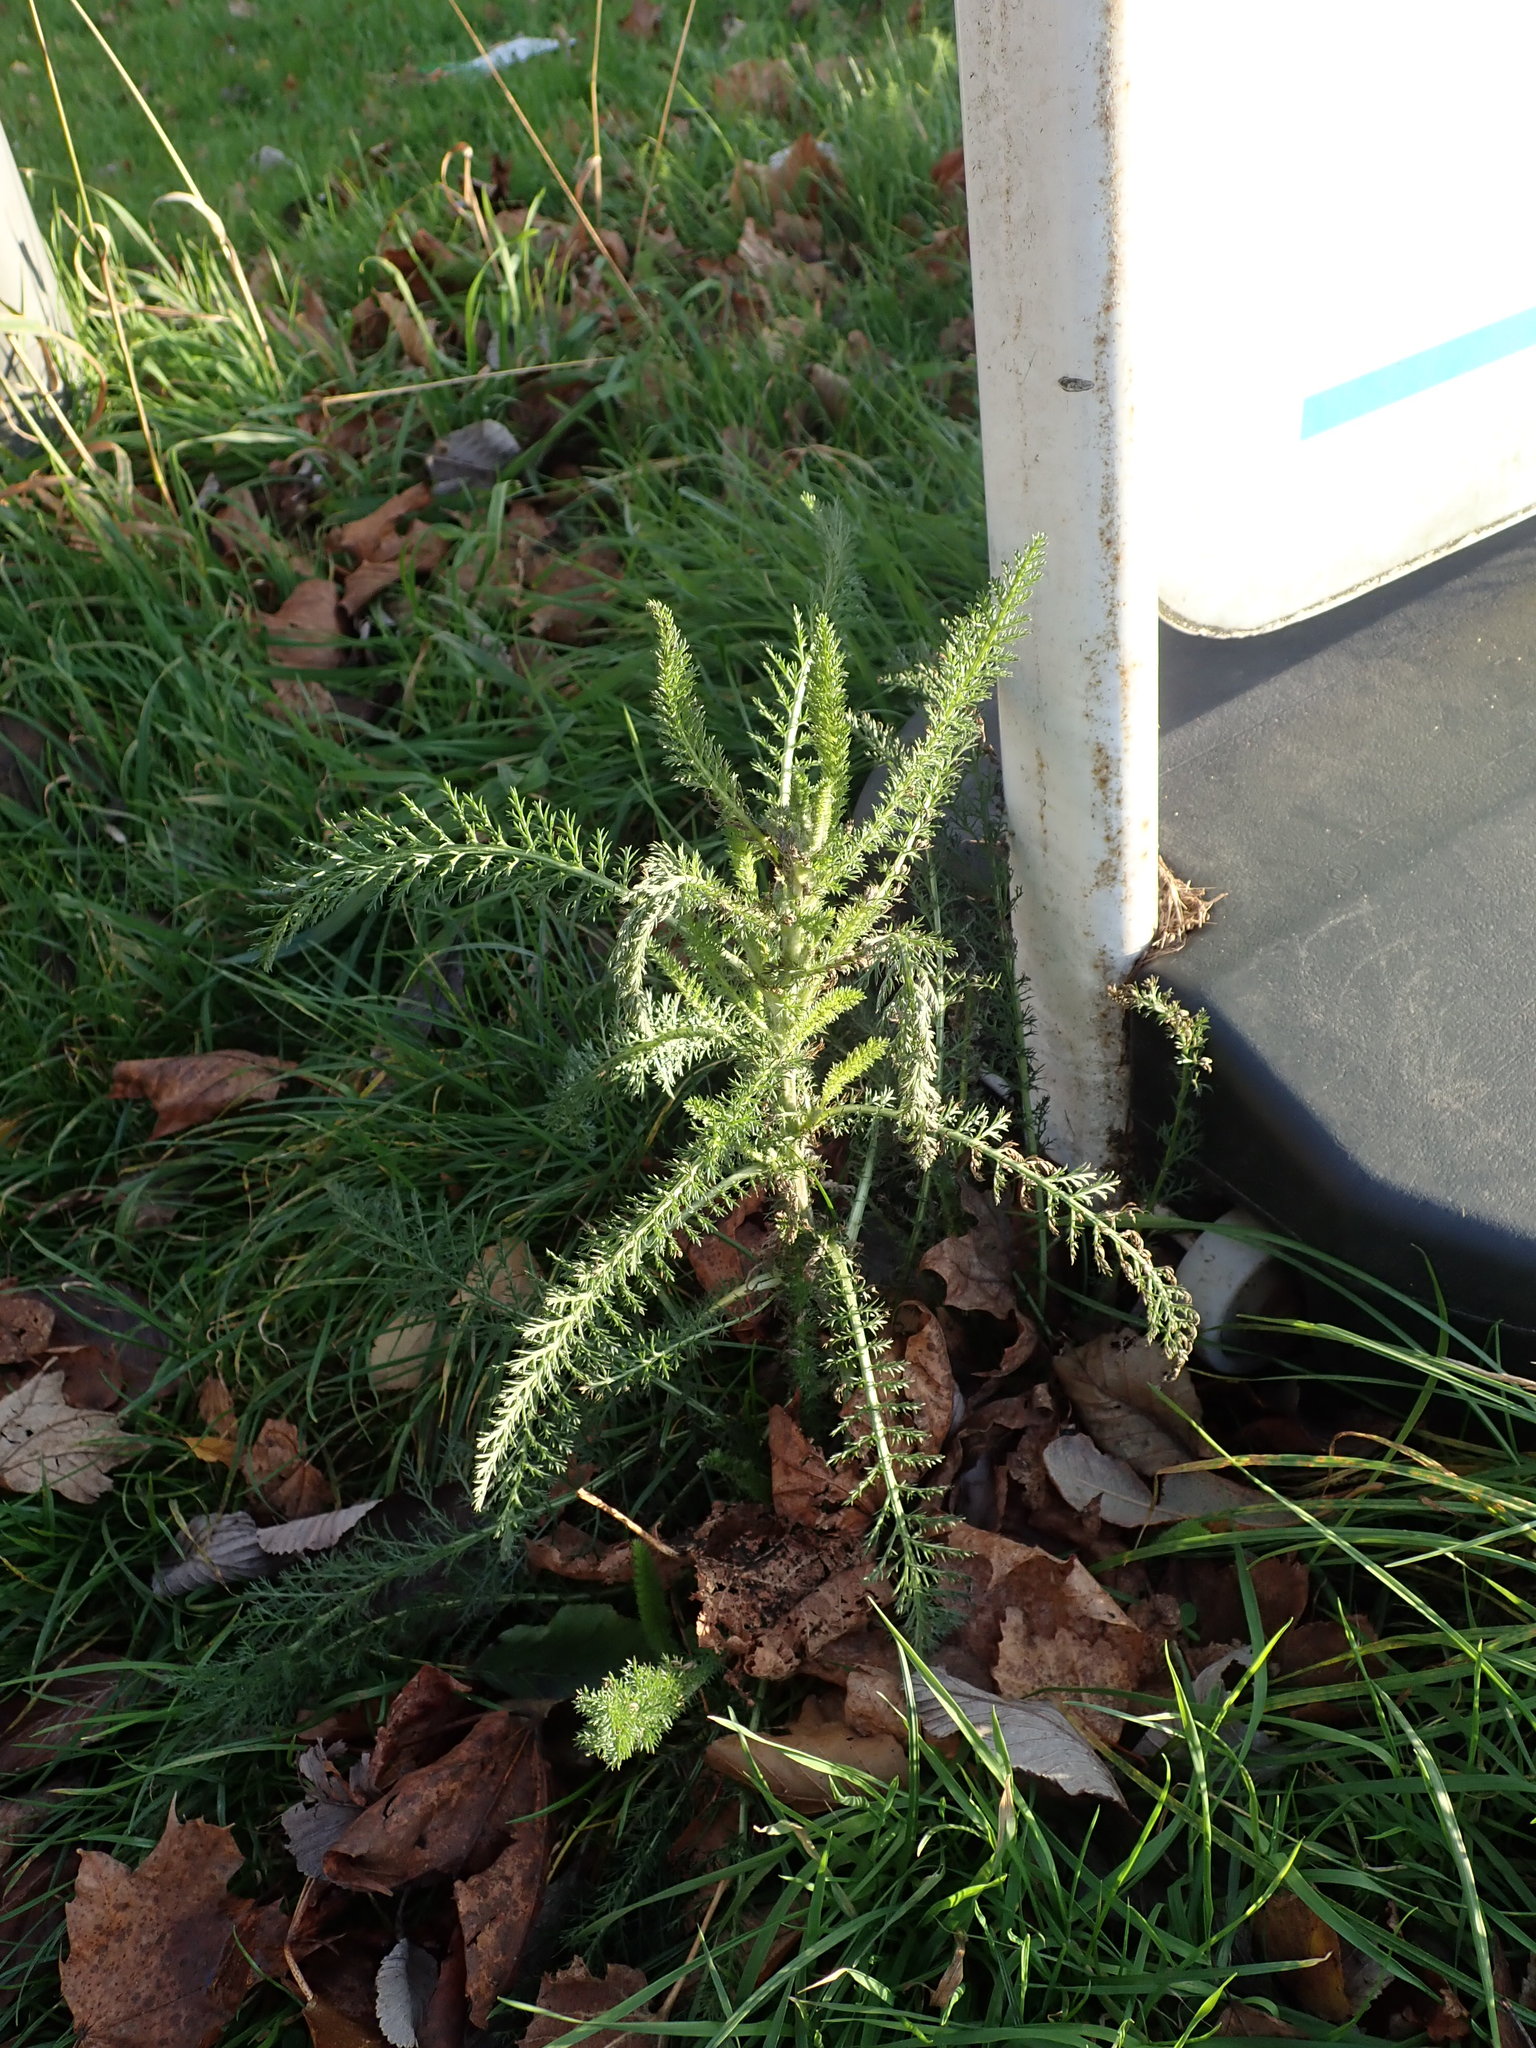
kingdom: Plantae
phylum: Tracheophyta
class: Magnoliopsida
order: Asterales
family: Asteraceae
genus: Achillea
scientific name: Achillea millefolium
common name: Yarrow
